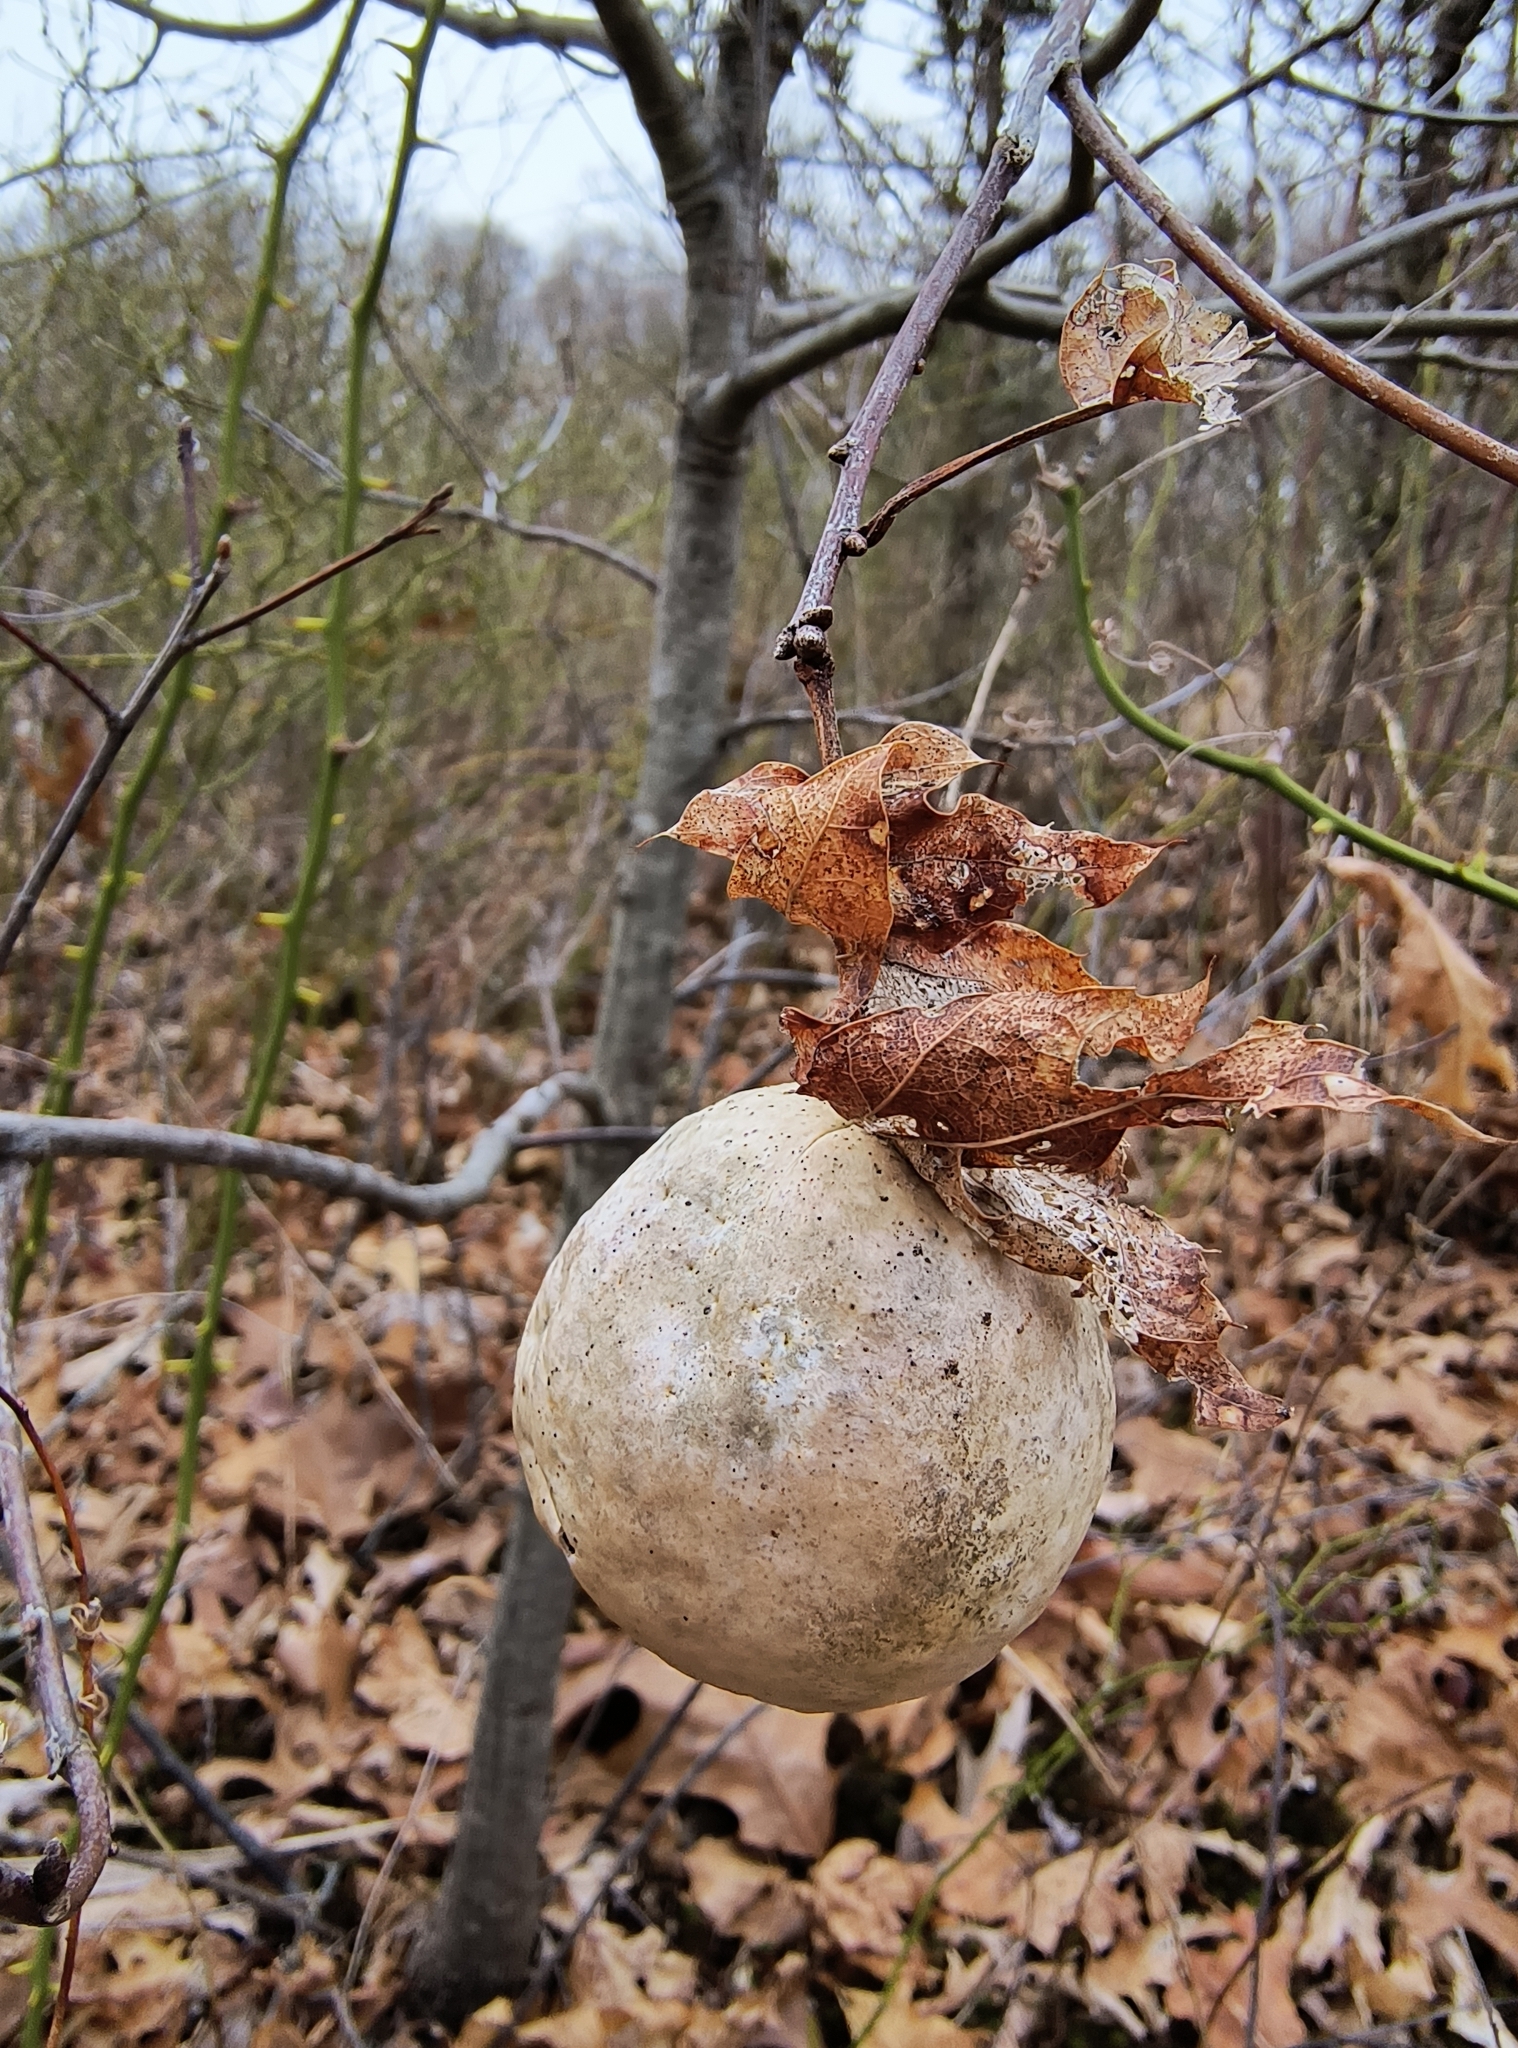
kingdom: Animalia
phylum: Arthropoda
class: Insecta
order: Hymenoptera
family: Cynipidae
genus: Amphibolips
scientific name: Amphibolips
